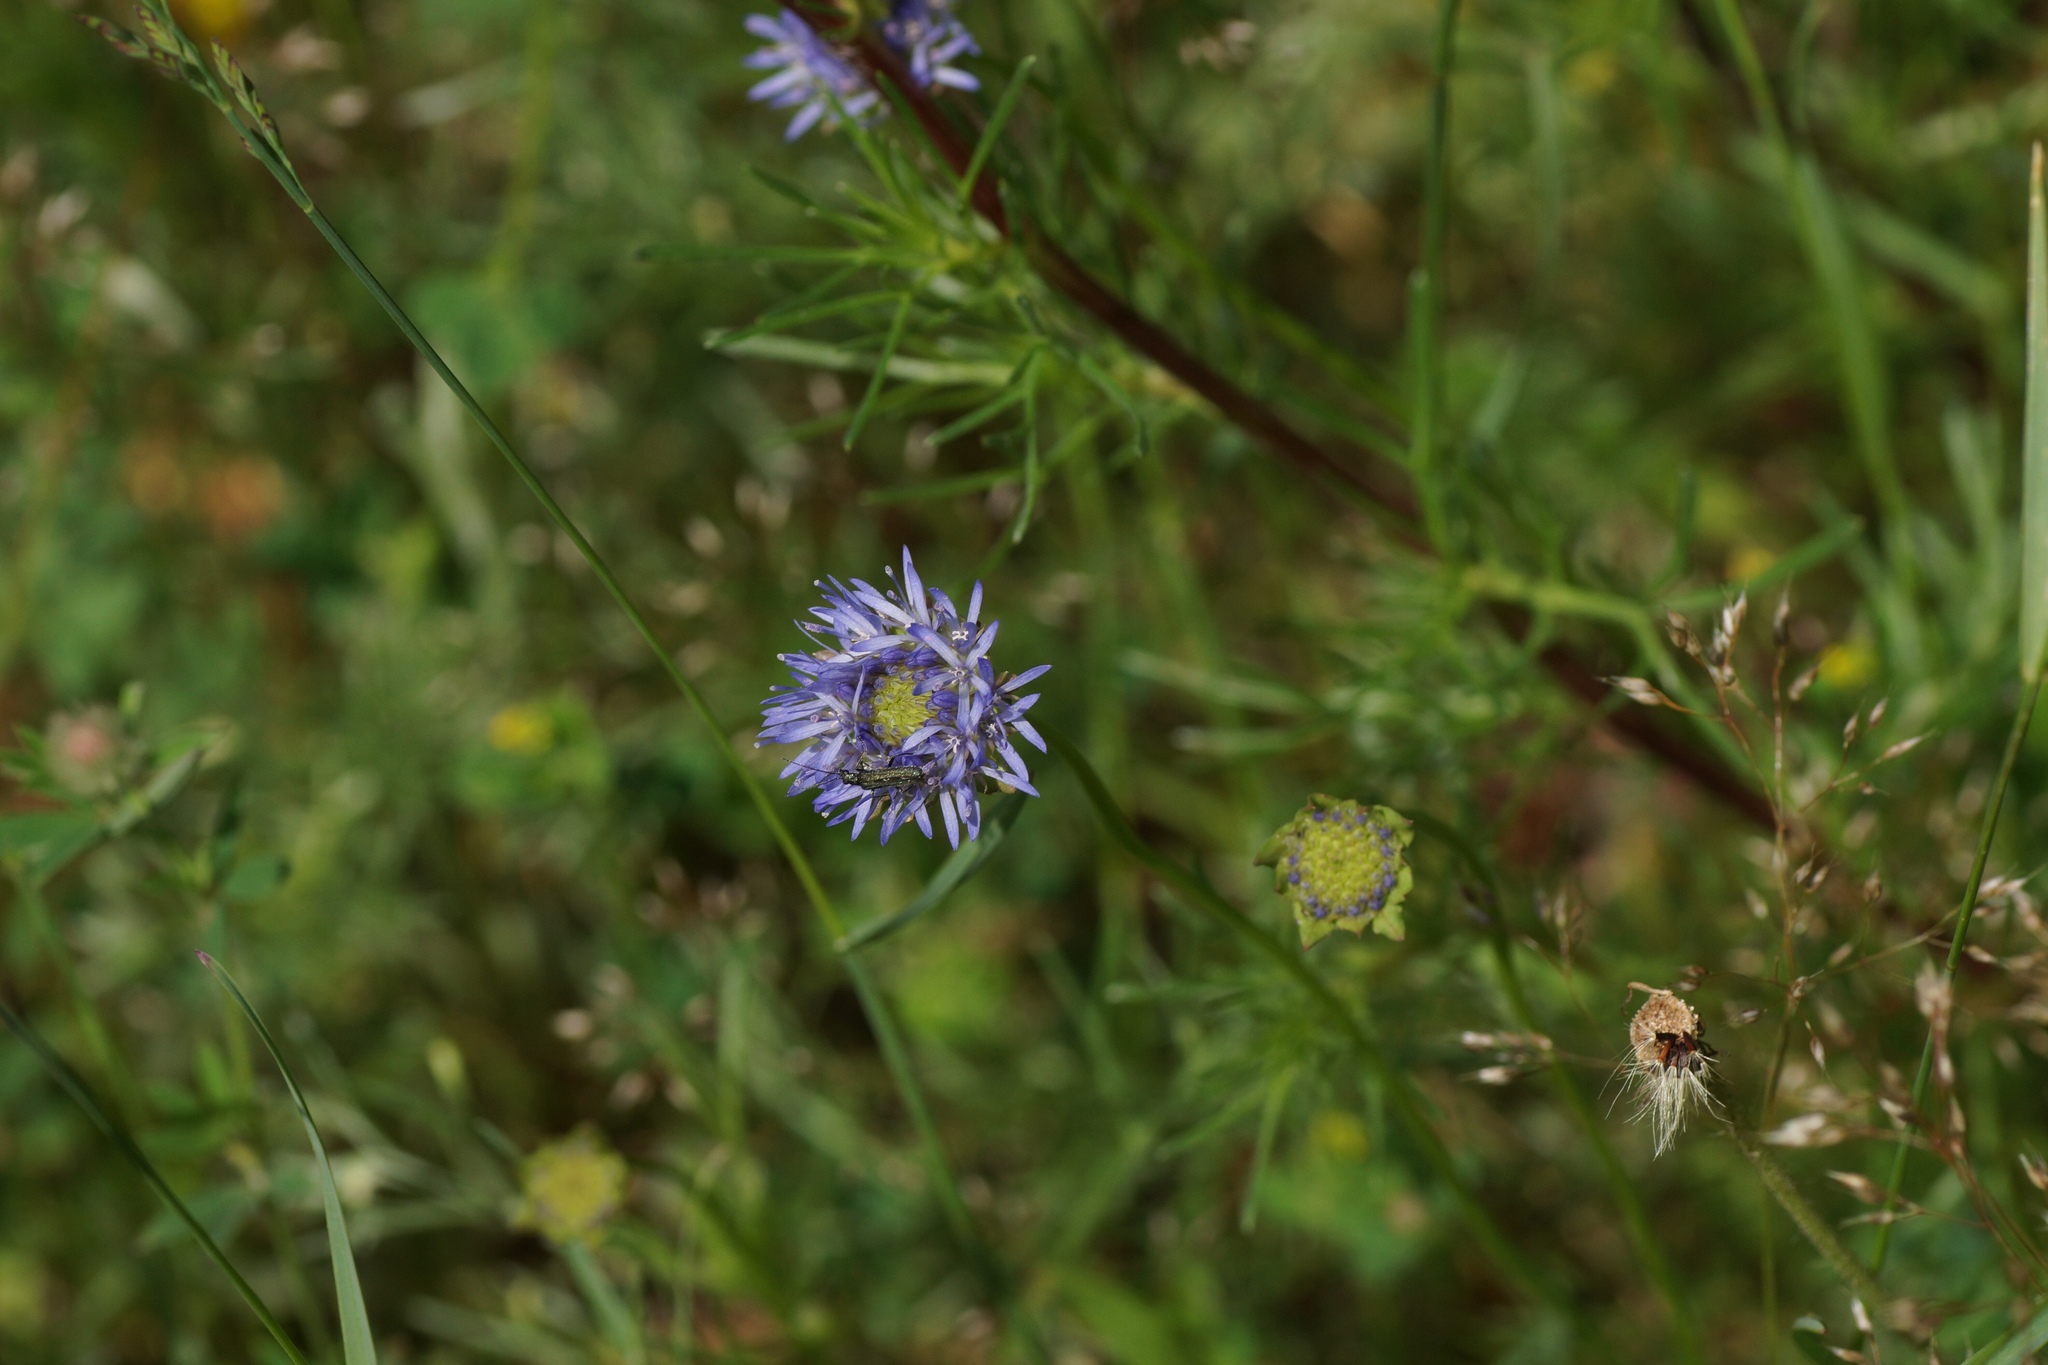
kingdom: Plantae
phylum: Tracheophyta
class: Magnoliopsida
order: Asterales
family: Campanulaceae
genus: Jasione
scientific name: Jasione montana
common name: Sheep's-bit
